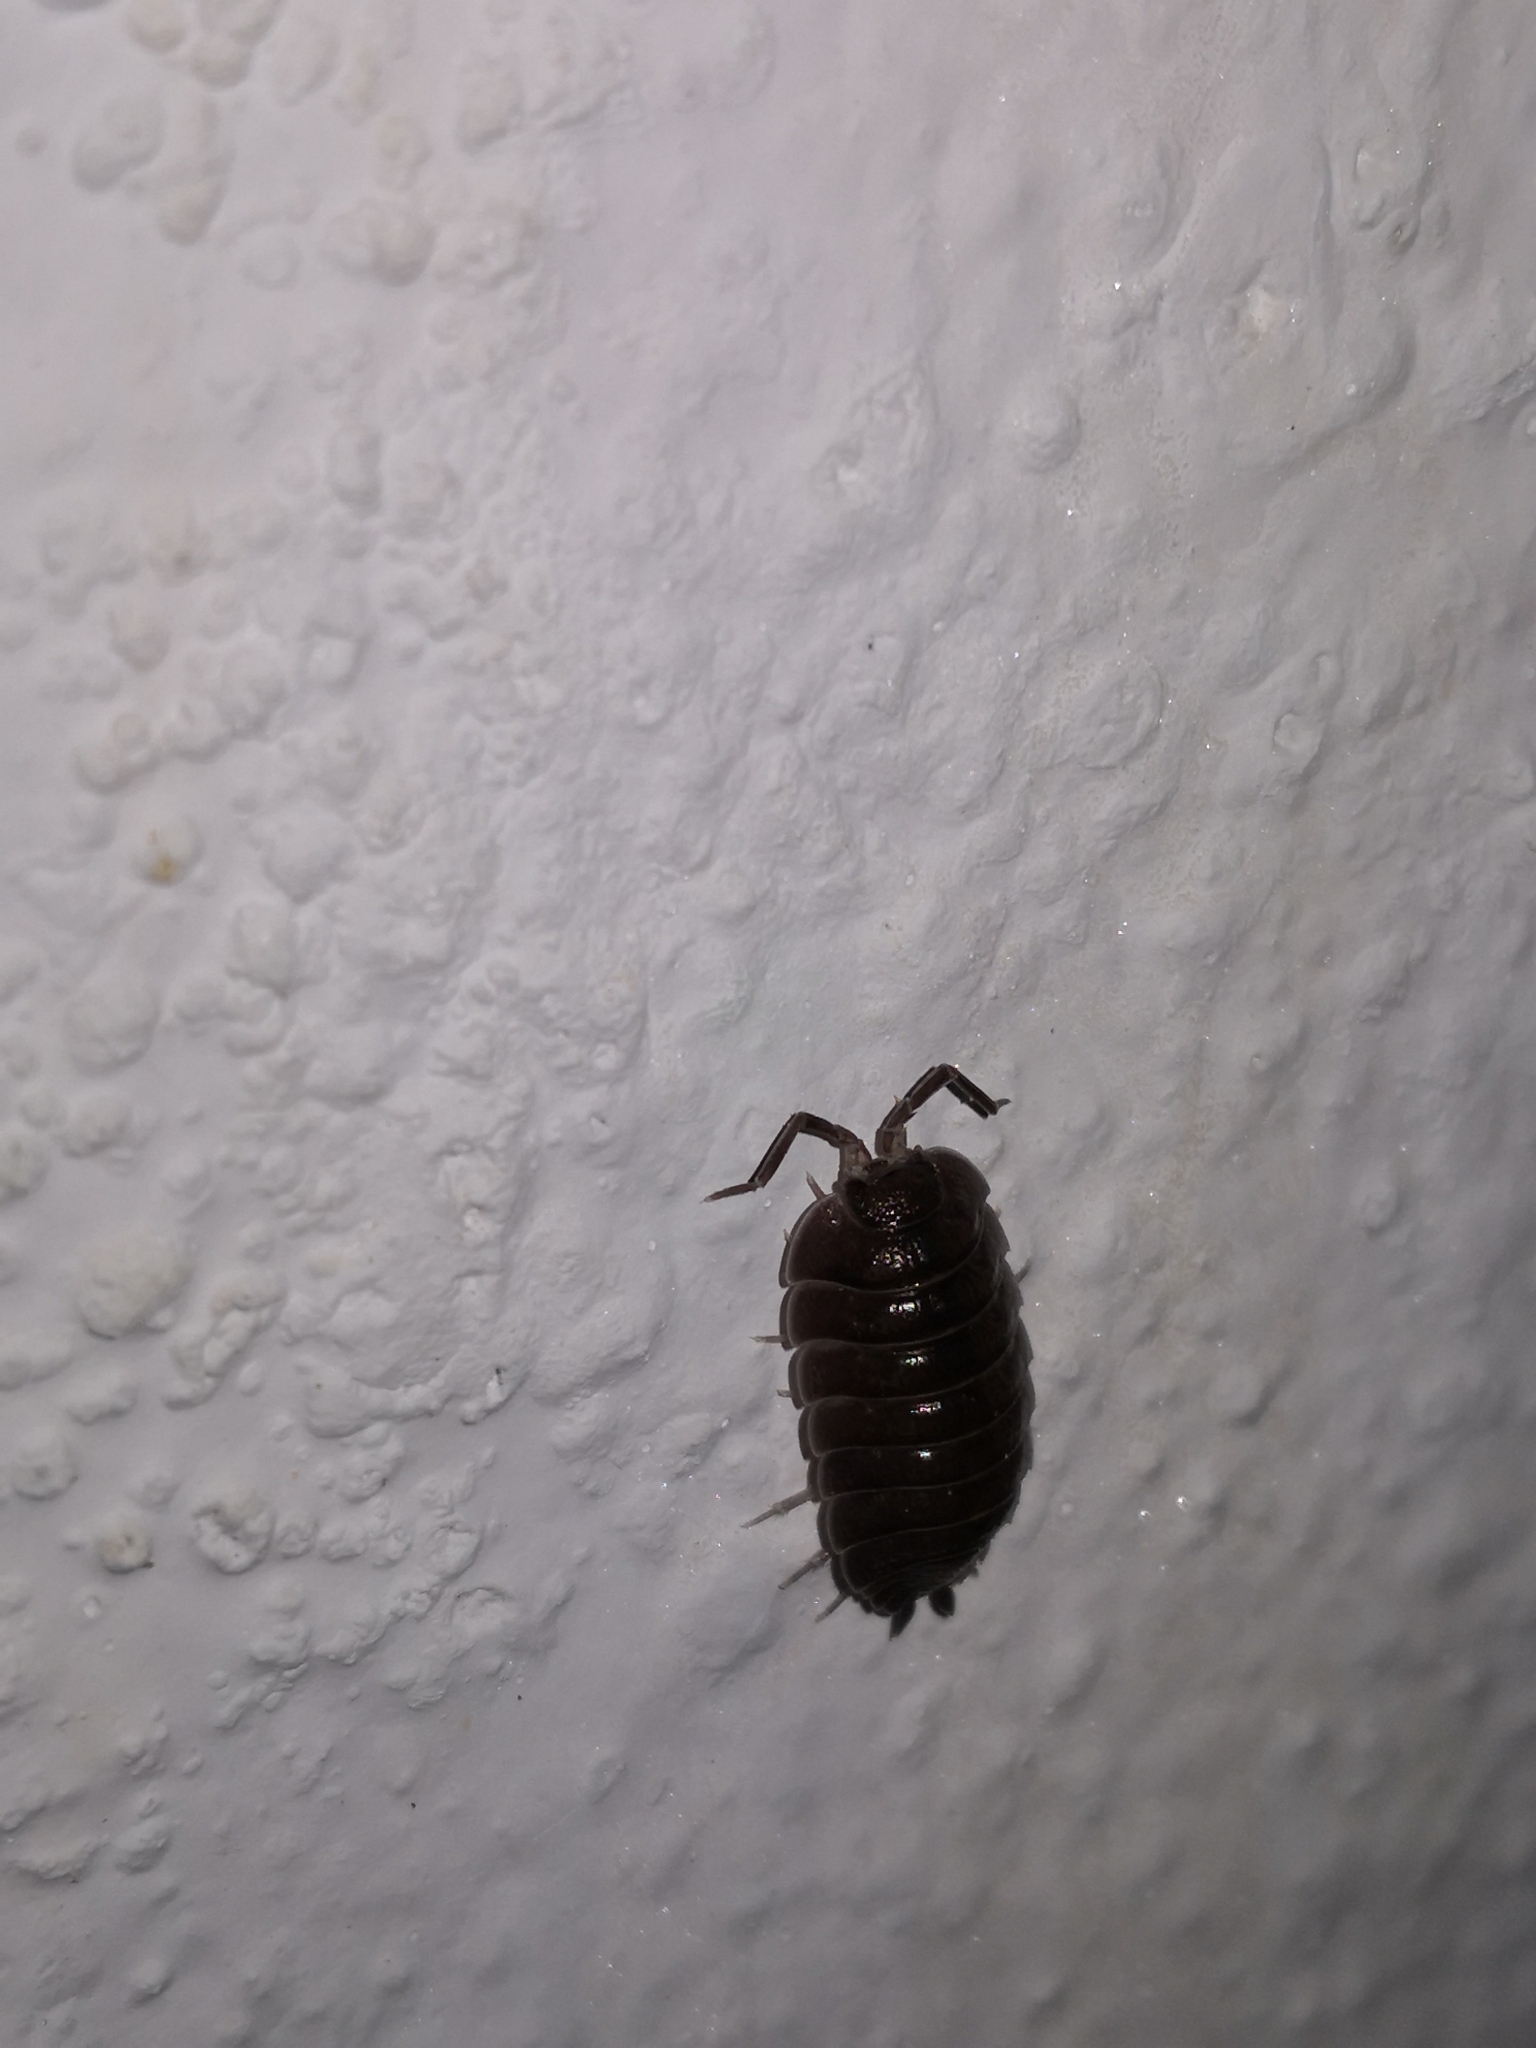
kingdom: Animalia
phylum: Arthropoda
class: Malacostraca
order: Isopoda
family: Porcellionidae
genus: Porcellio
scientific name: Porcellio obsoletus
